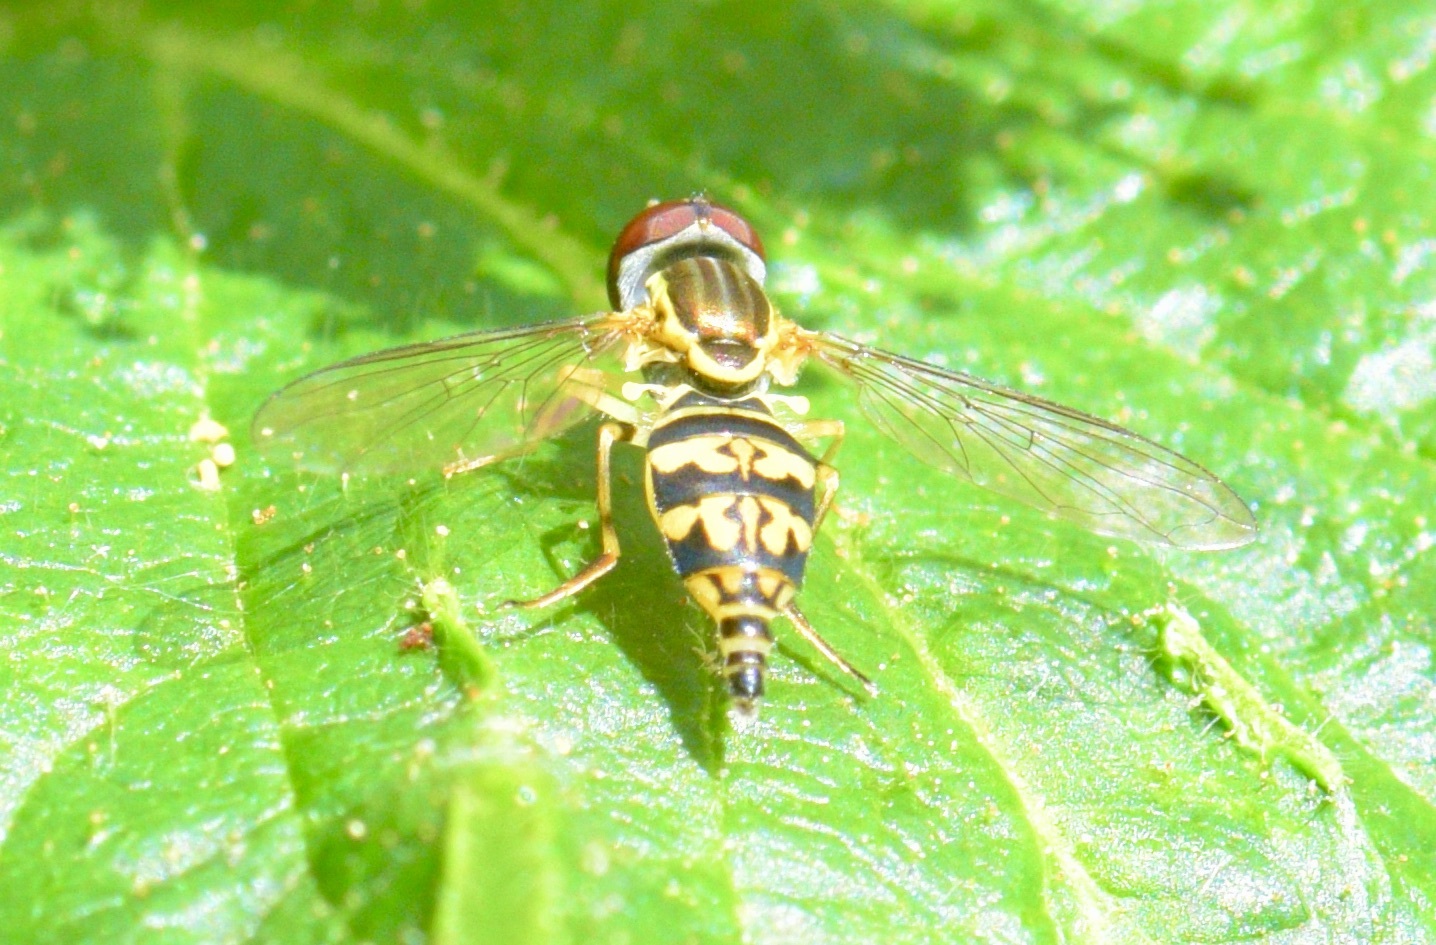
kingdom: Animalia
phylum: Arthropoda
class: Insecta
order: Diptera
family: Syrphidae
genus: Toxomerus
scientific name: Toxomerus geminatus
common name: Eastern calligrapher
